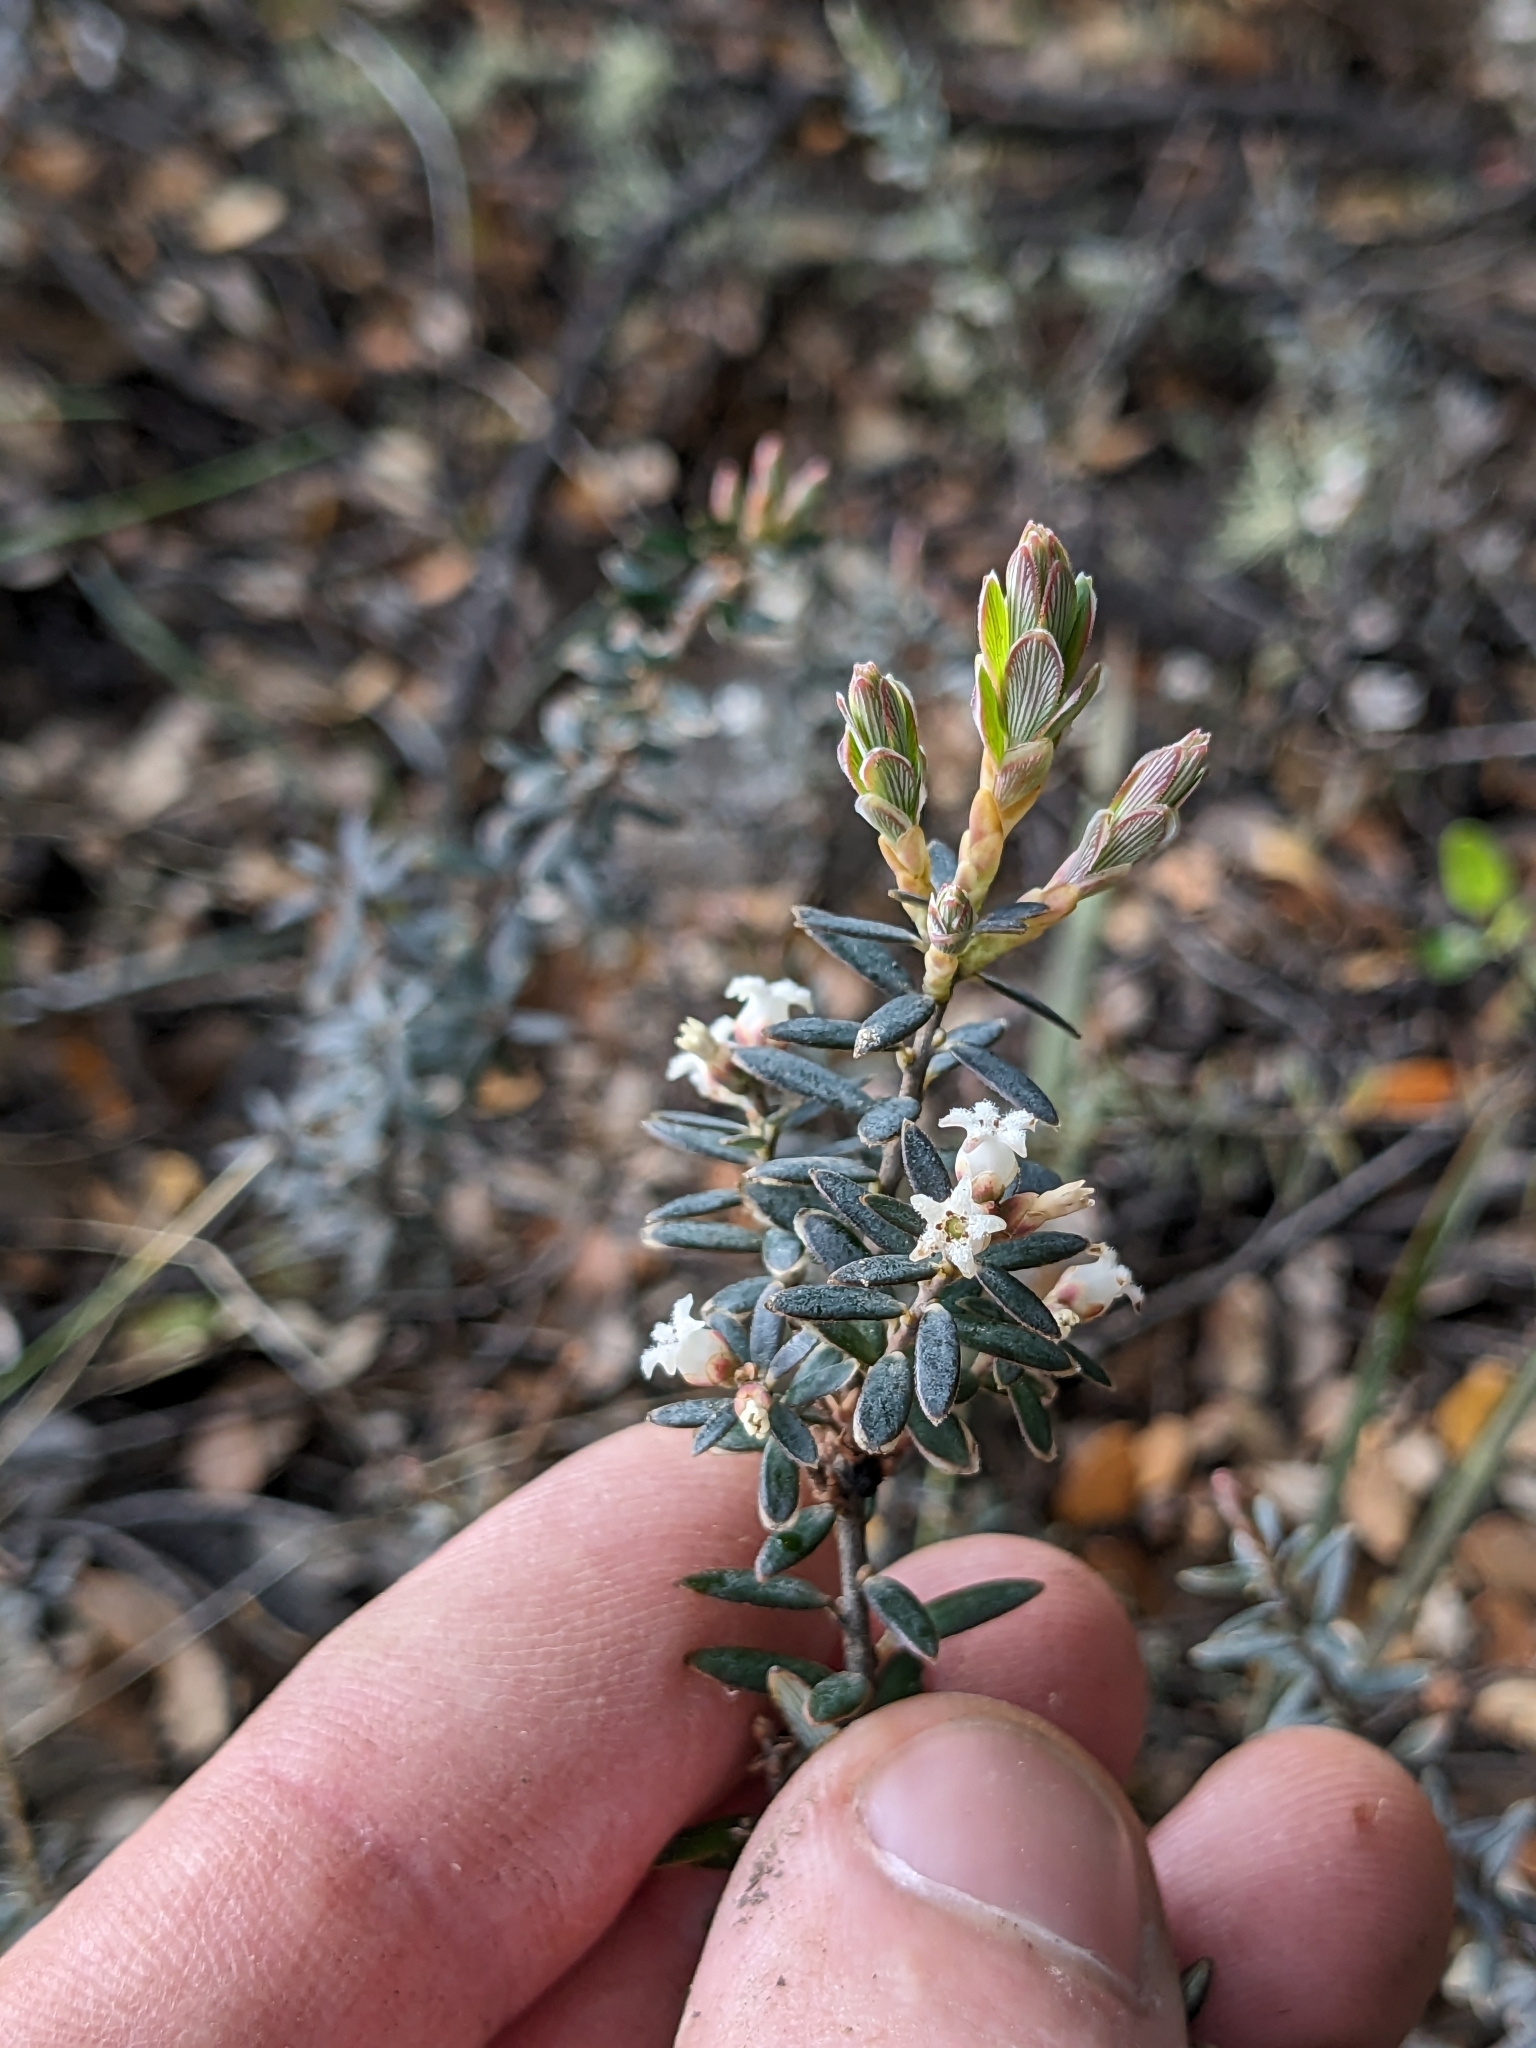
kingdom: Plantae
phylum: Tracheophyta
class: Magnoliopsida
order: Ericales
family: Ericaceae
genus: Acrothamnus
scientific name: Acrothamnus colensoi
